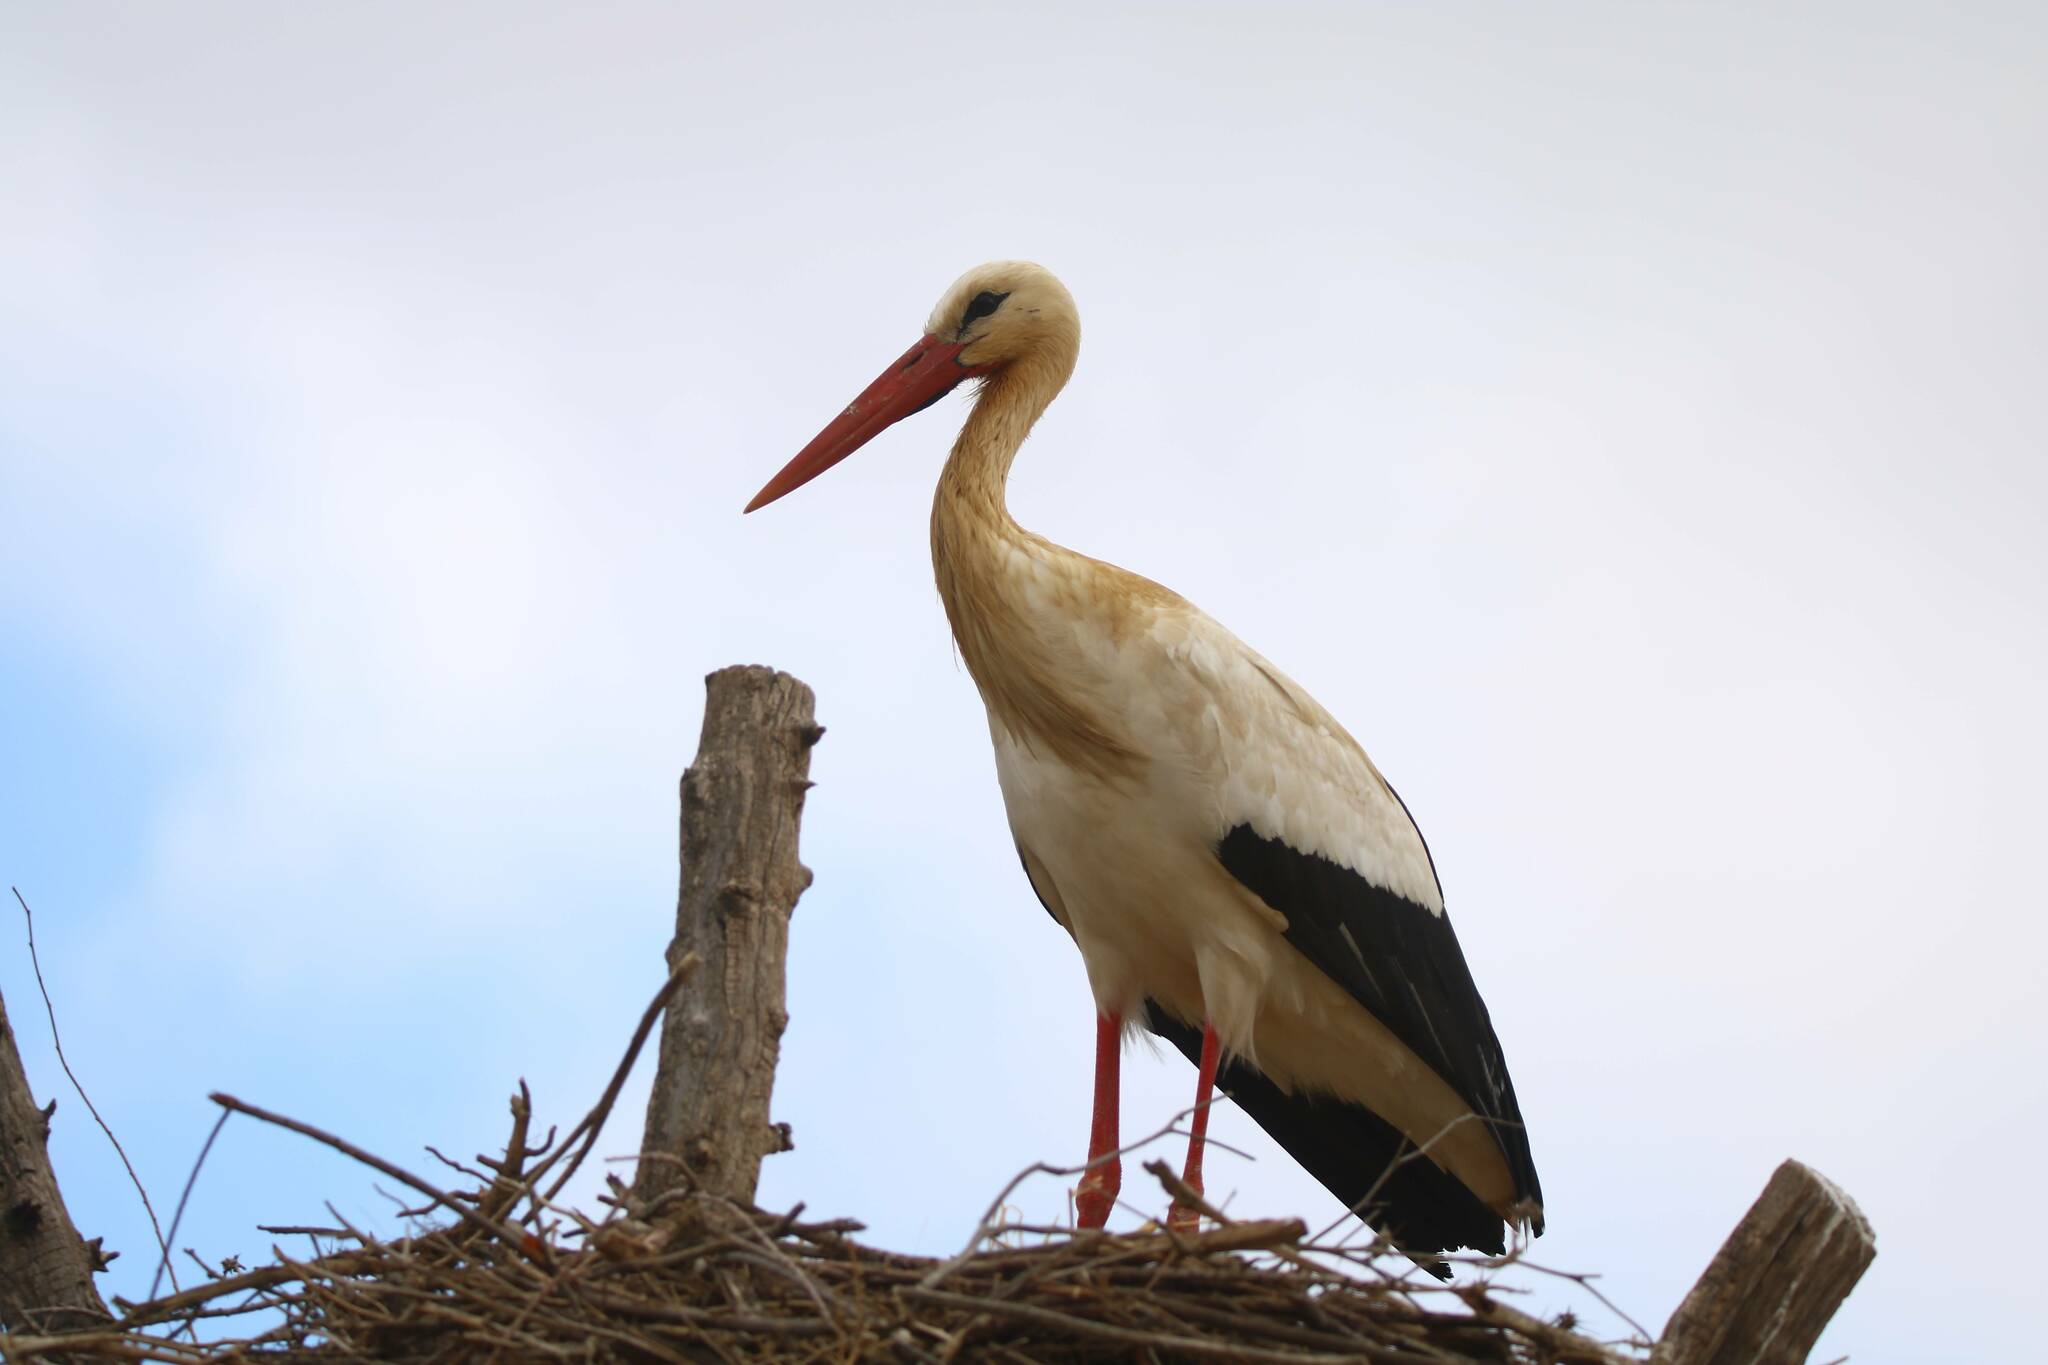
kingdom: Animalia
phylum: Chordata
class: Aves
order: Ciconiiformes
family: Ciconiidae
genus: Ciconia
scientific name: Ciconia ciconia
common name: White stork
